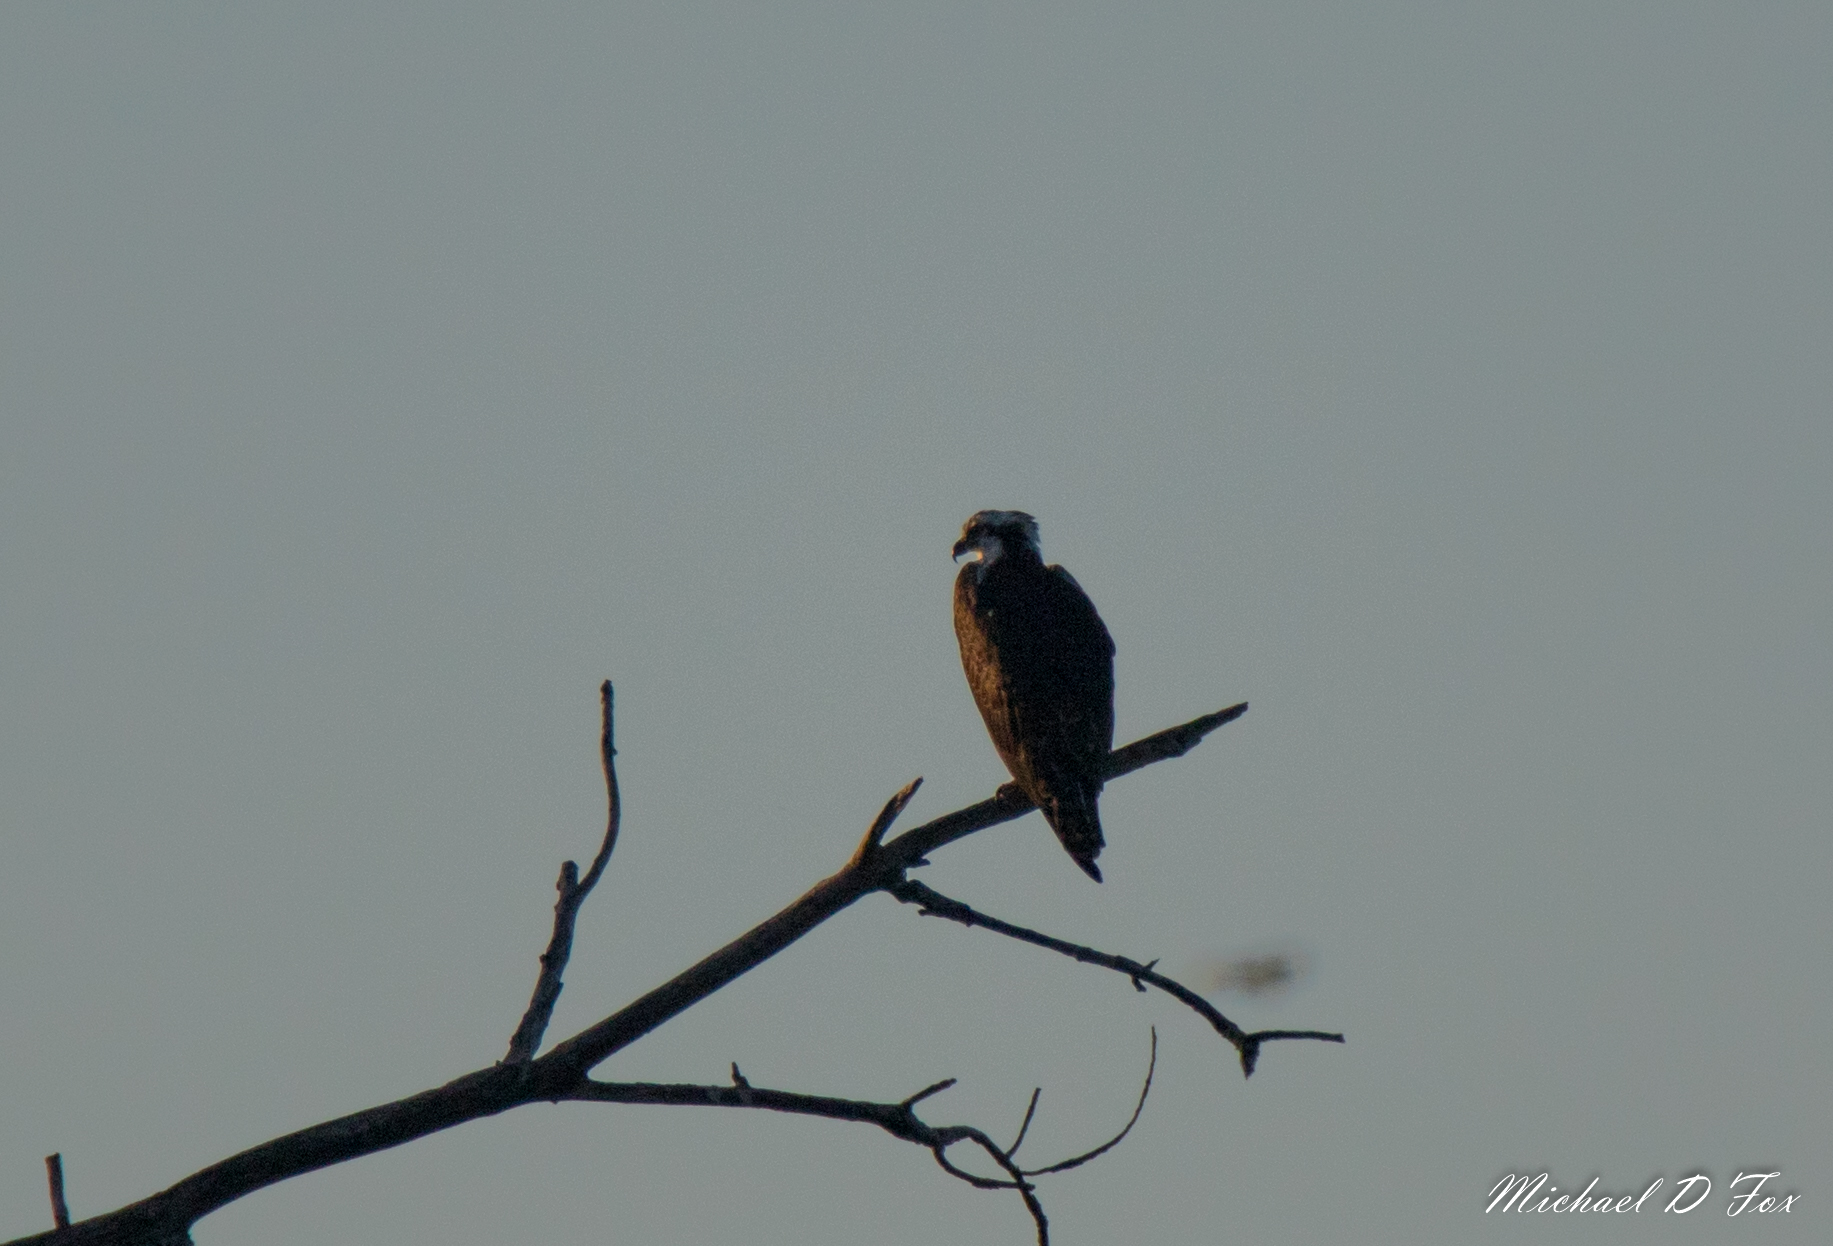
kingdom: Animalia
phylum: Chordata
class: Aves
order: Accipitriformes
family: Pandionidae
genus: Pandion
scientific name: Pandion haliaetus
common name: Osprey
